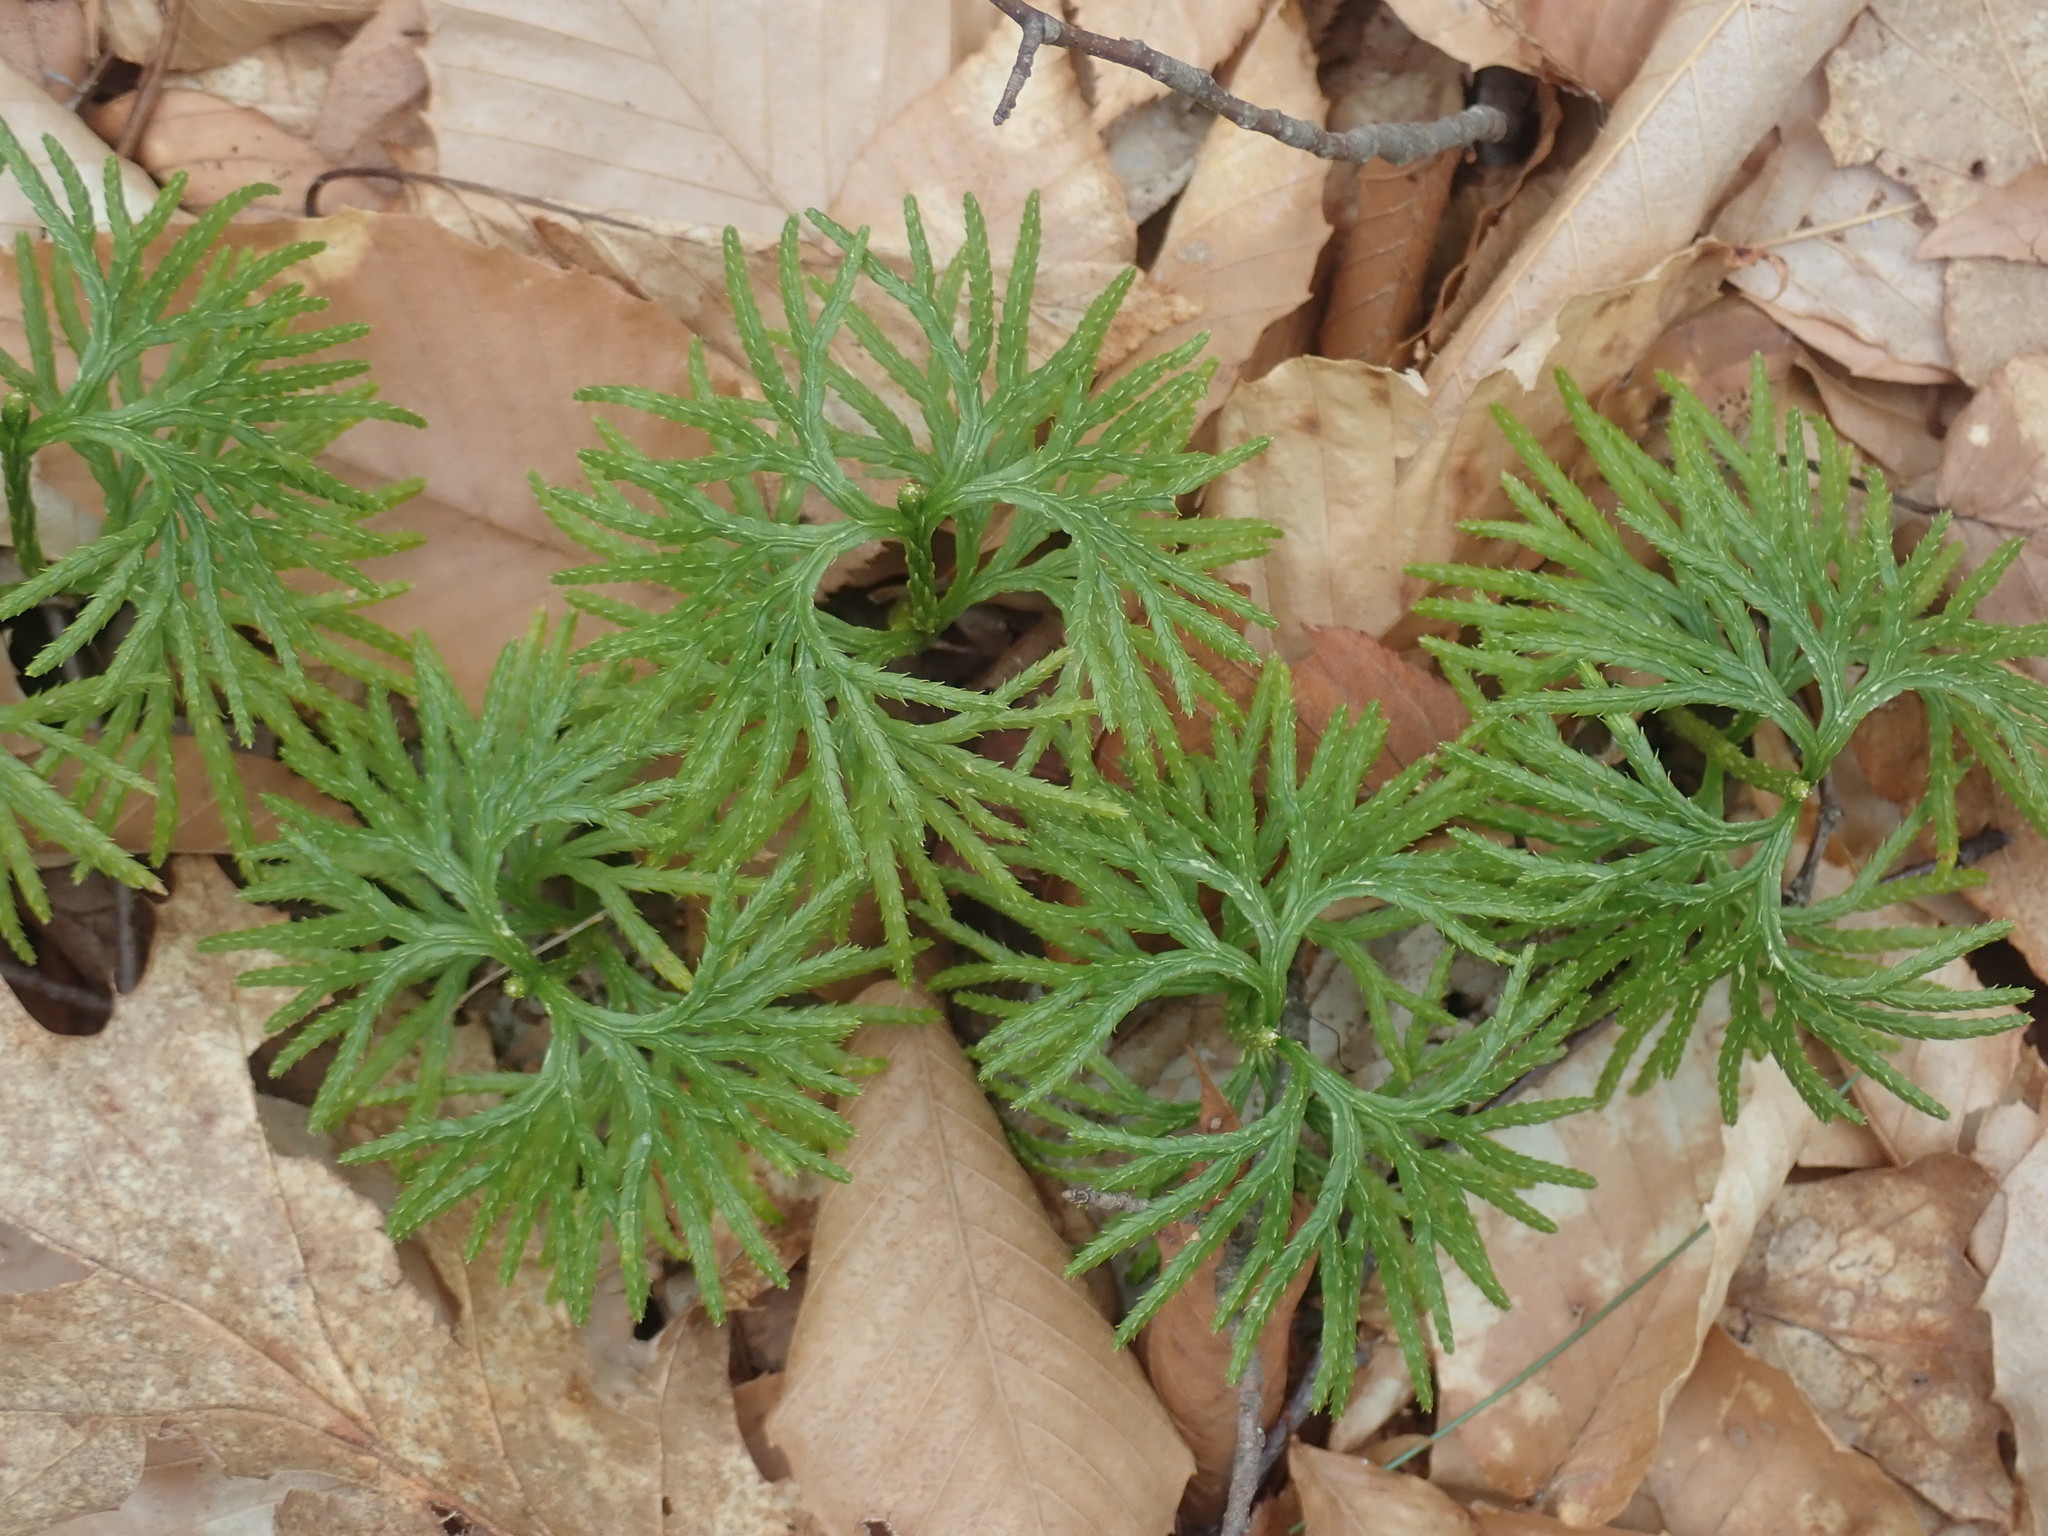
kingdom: Plantae
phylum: Tracheophyta
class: Lycopodiopsida
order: Lycopodiales
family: Lycopodiaceae
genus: Diphasiastrum
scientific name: Diphasiastrum digitatum
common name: Southern running-pine
